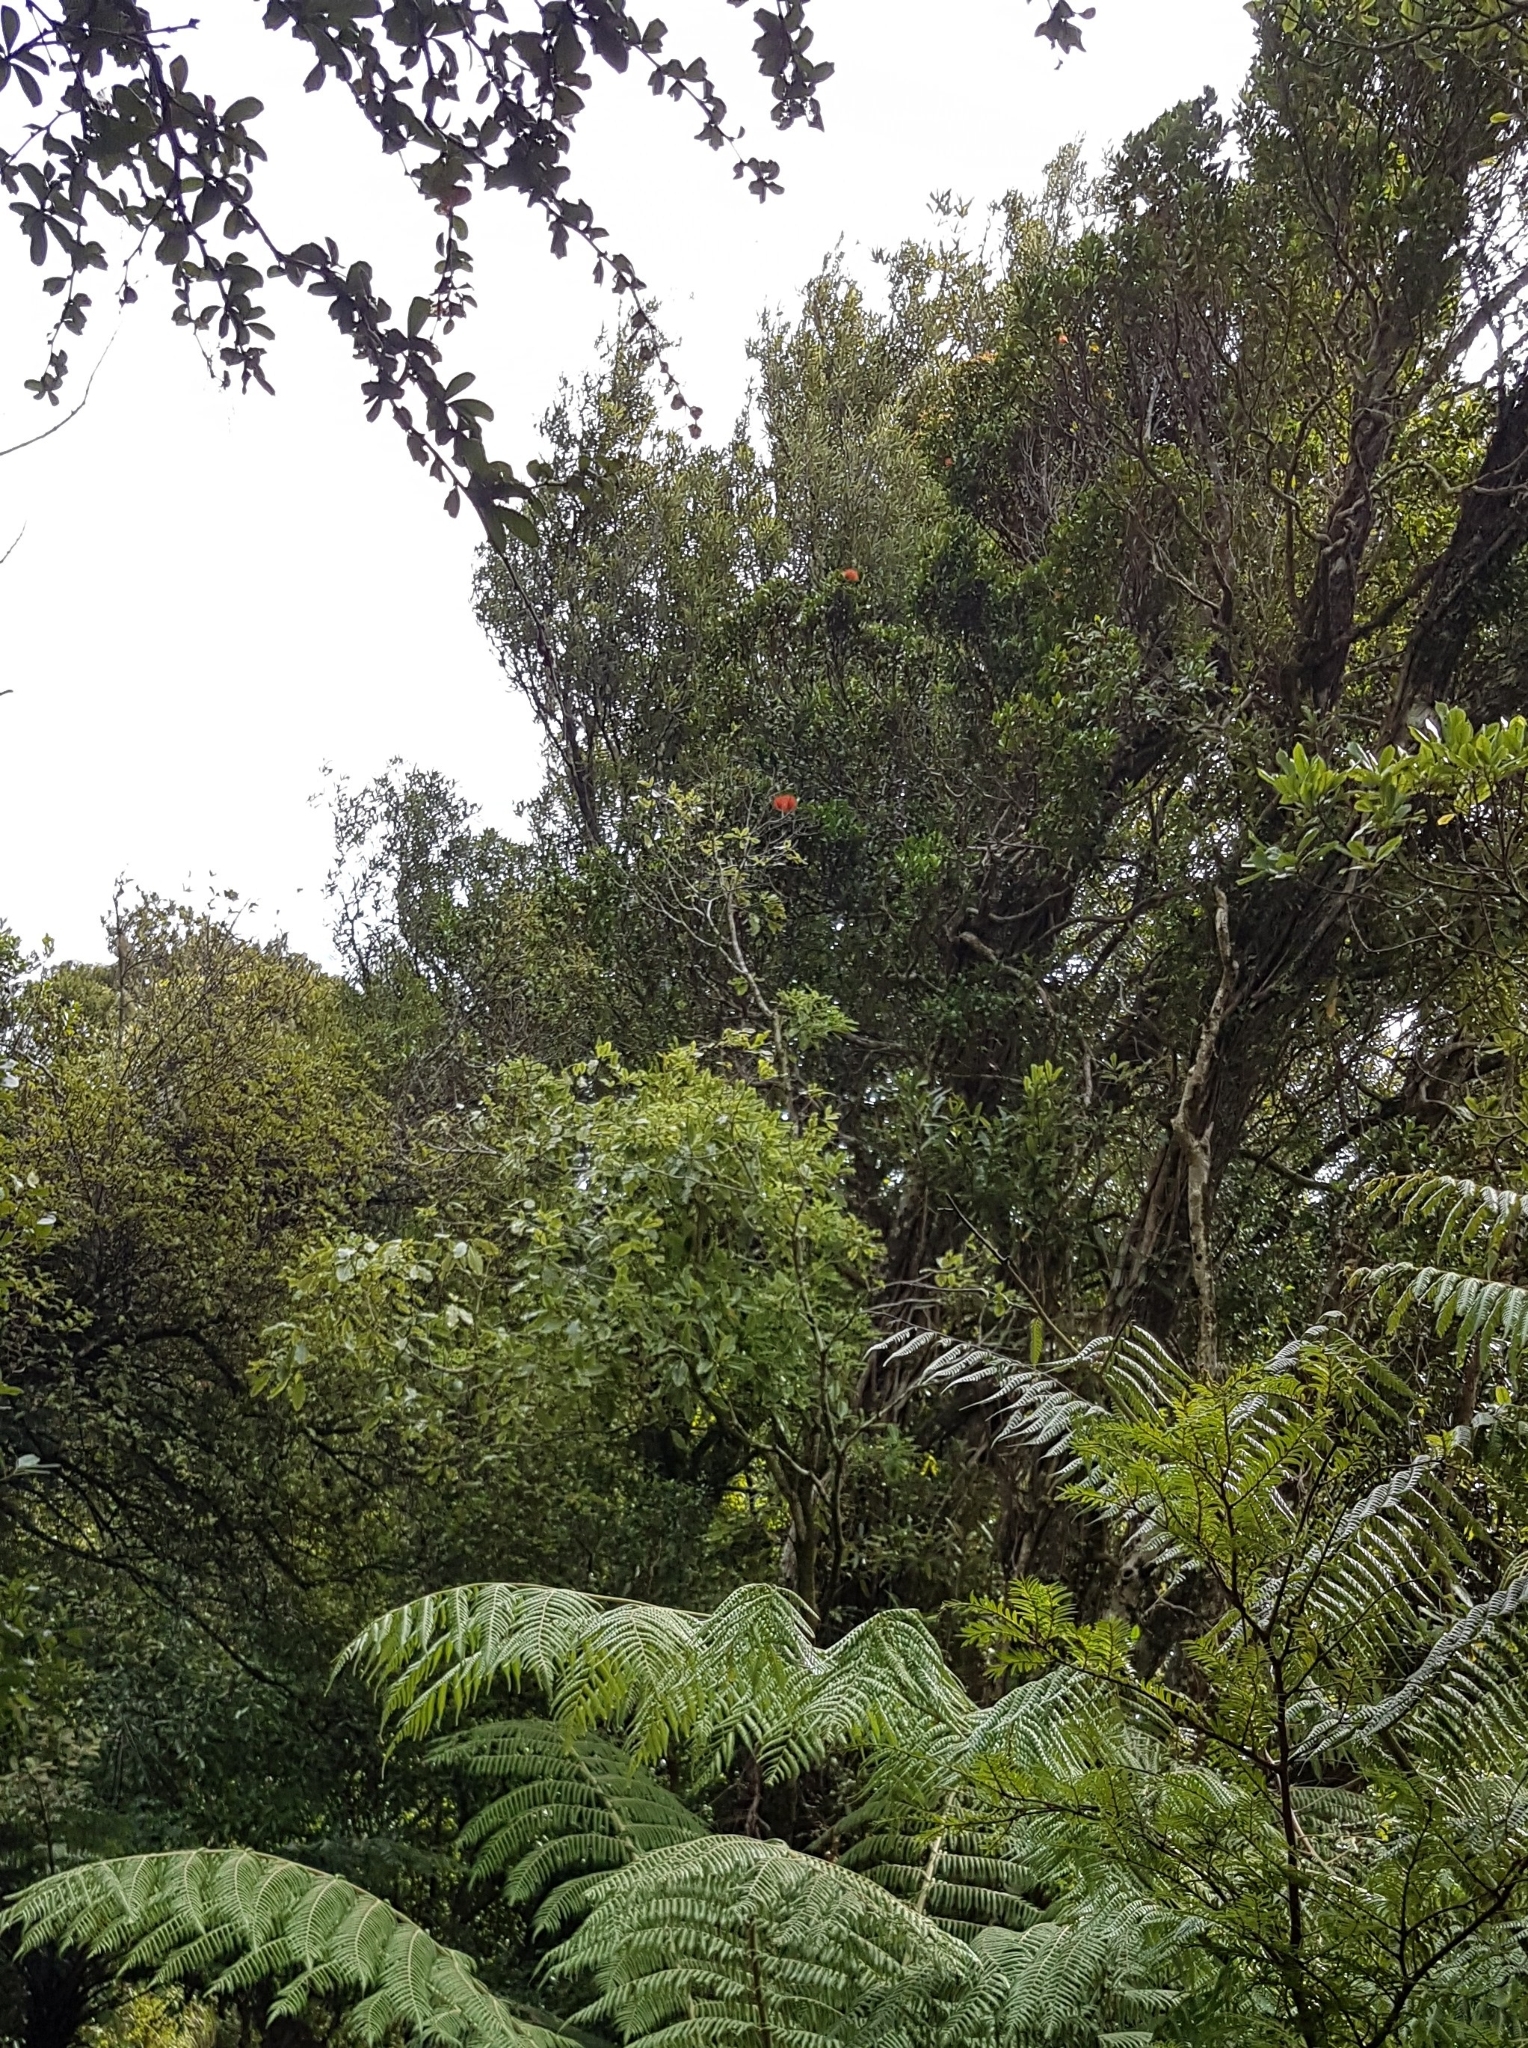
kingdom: Plantae
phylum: Tracheophyta
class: Magnoliopsida
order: Myrtales
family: Myrtaceae
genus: Metrosideros
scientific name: Metrosideros fulgens
